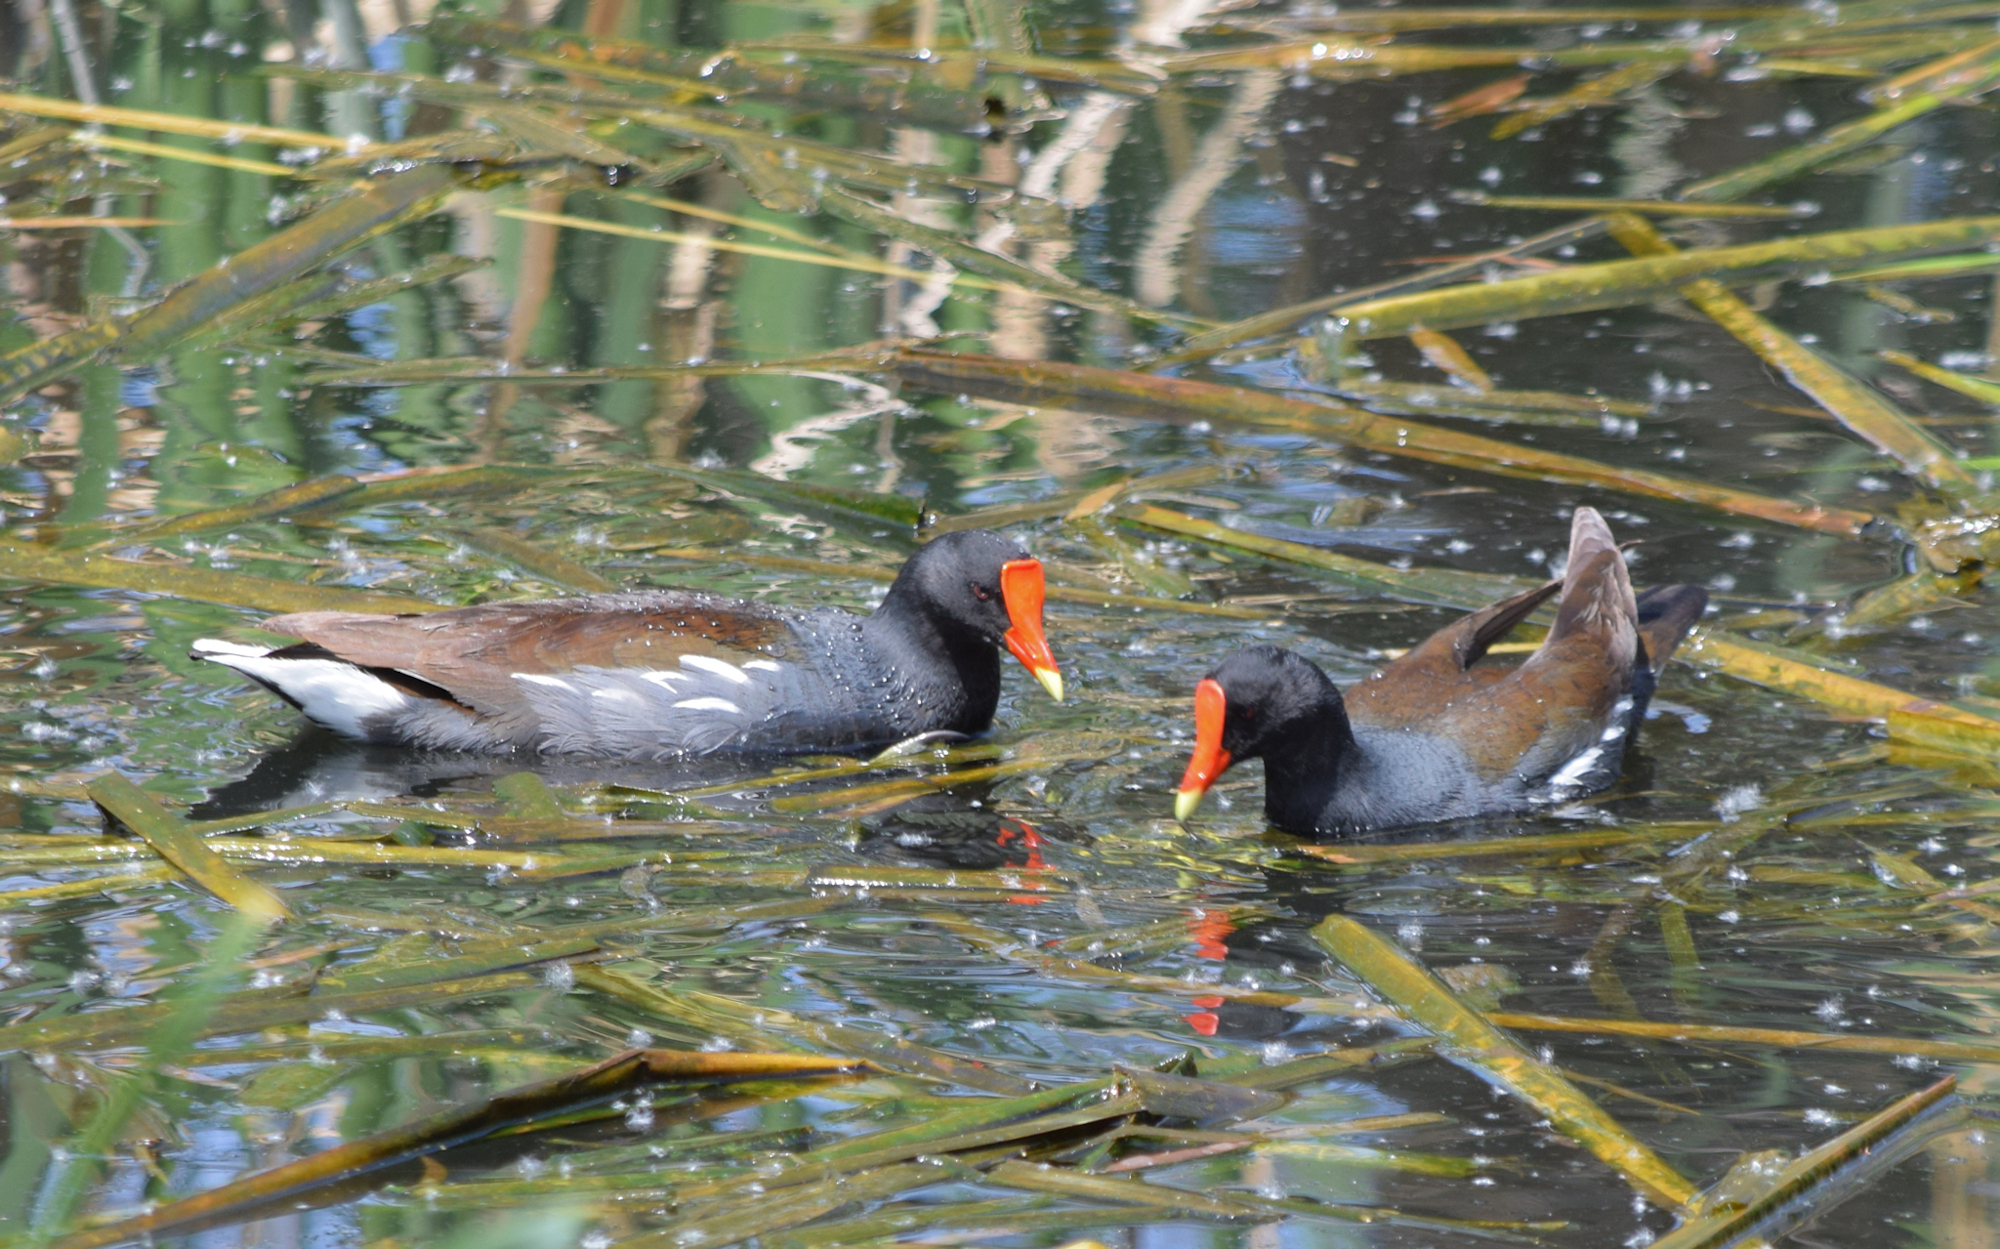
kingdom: Animalia
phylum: Chordata
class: Aves
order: Gruiformes
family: Rallidae
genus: Gallinula
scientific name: Gallinula chloropus
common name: Common moorhen
